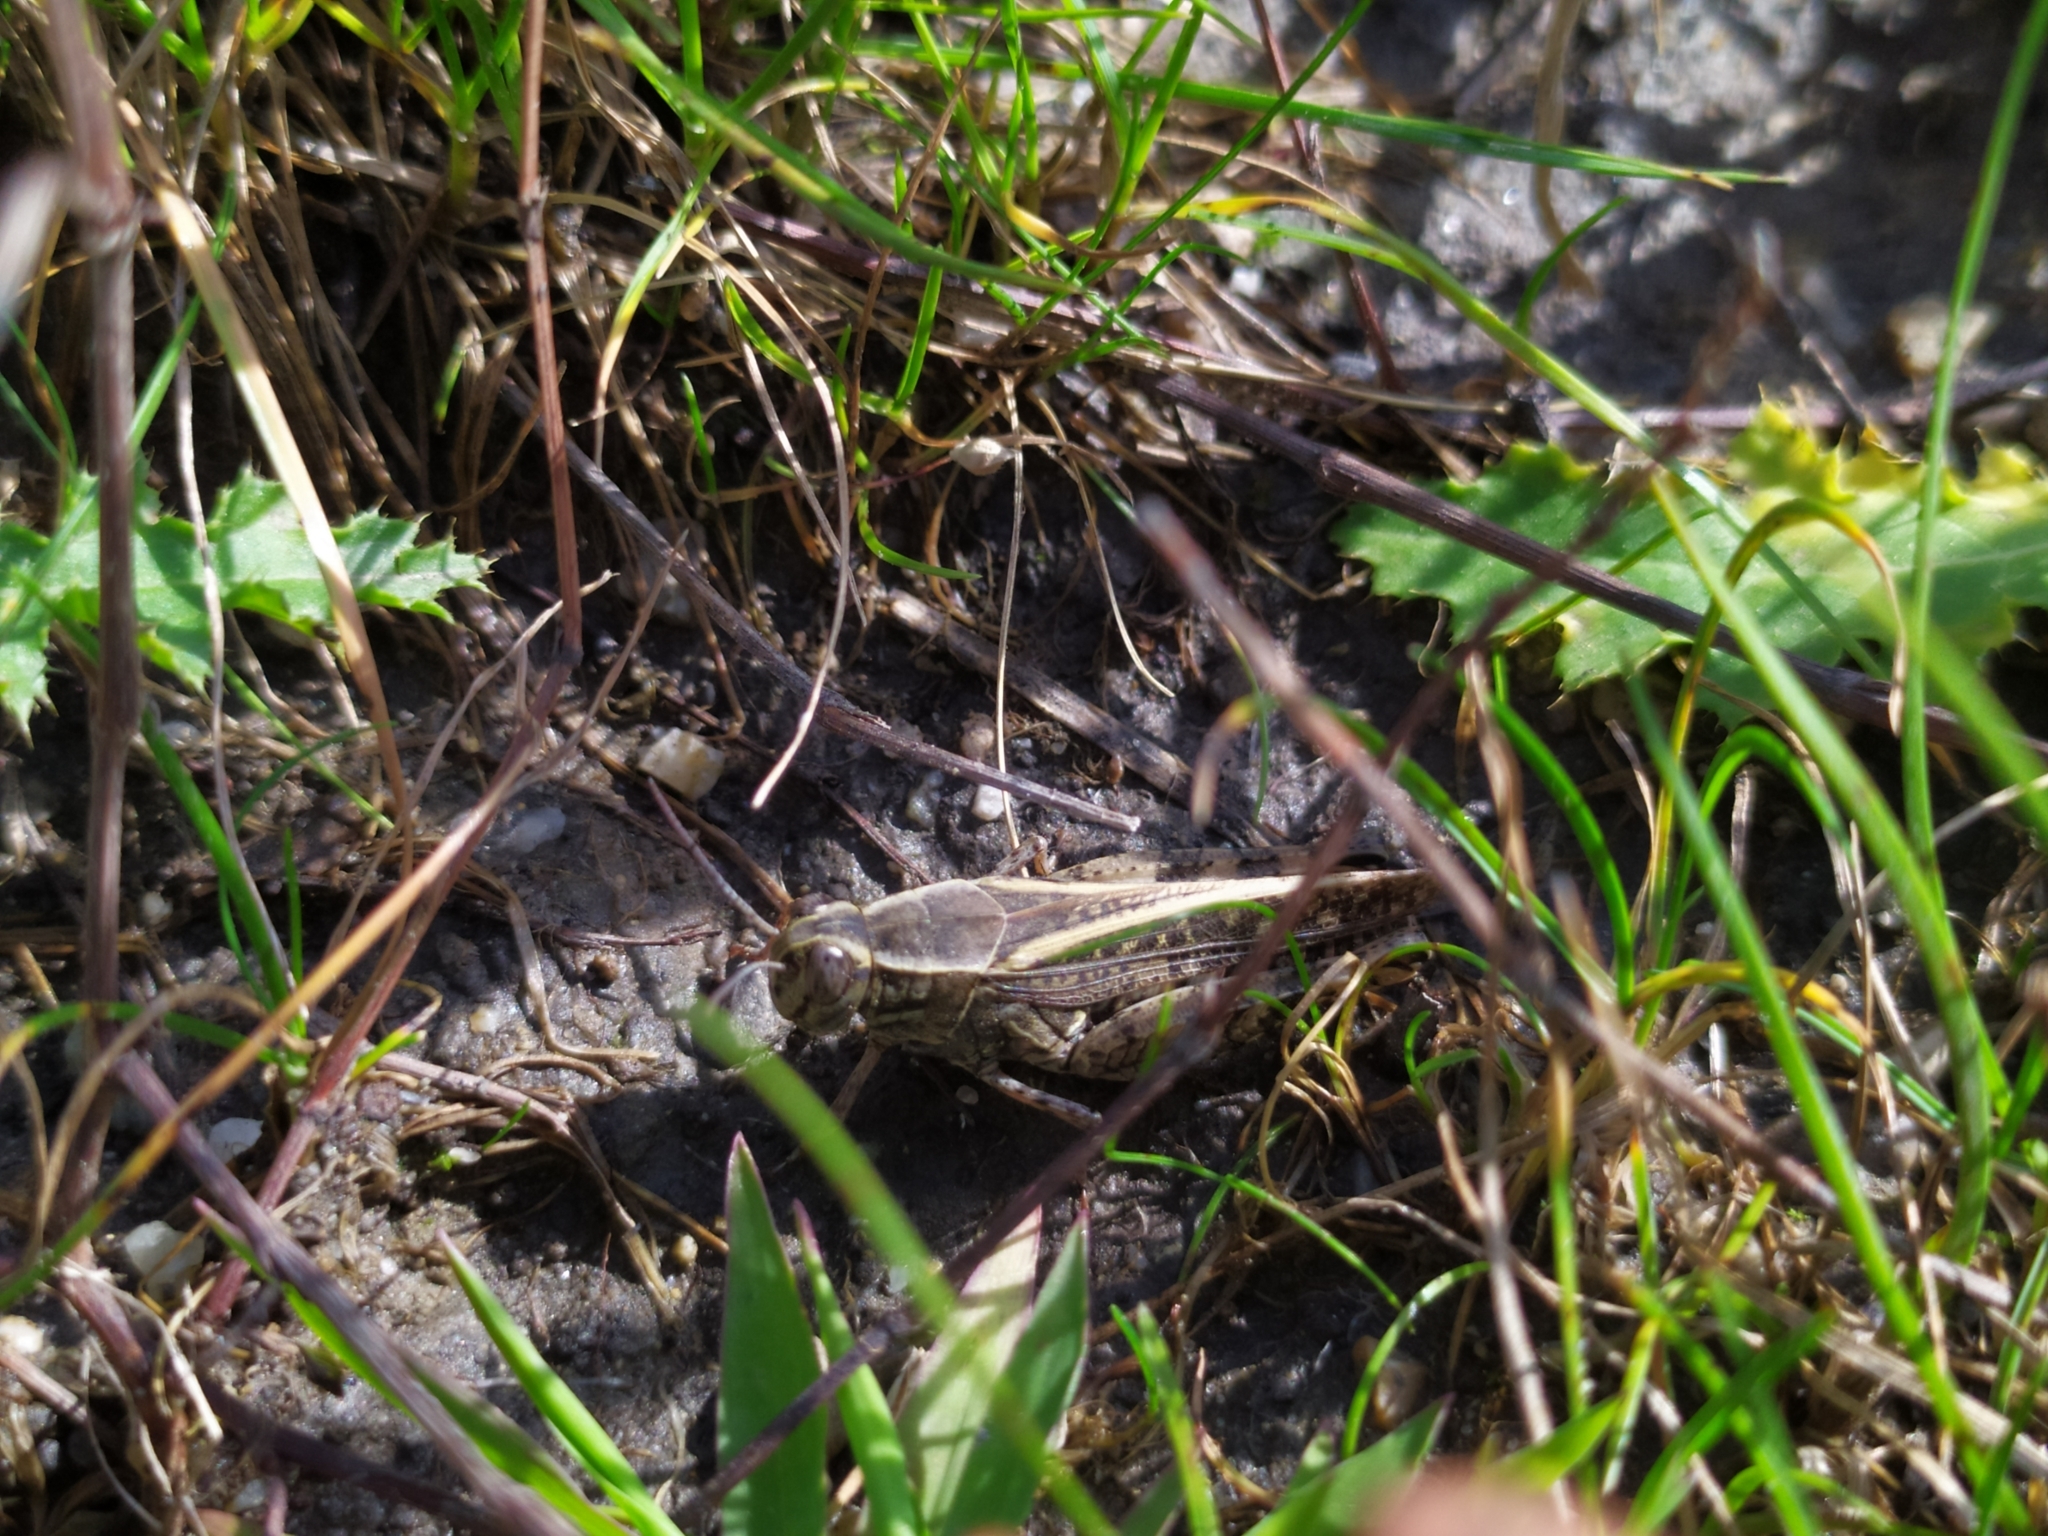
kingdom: Animalia
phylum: Arthropoda
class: Insecta
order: Orthoptera
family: Acrididae
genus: Calliptamus
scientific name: Calliptamus italicus
